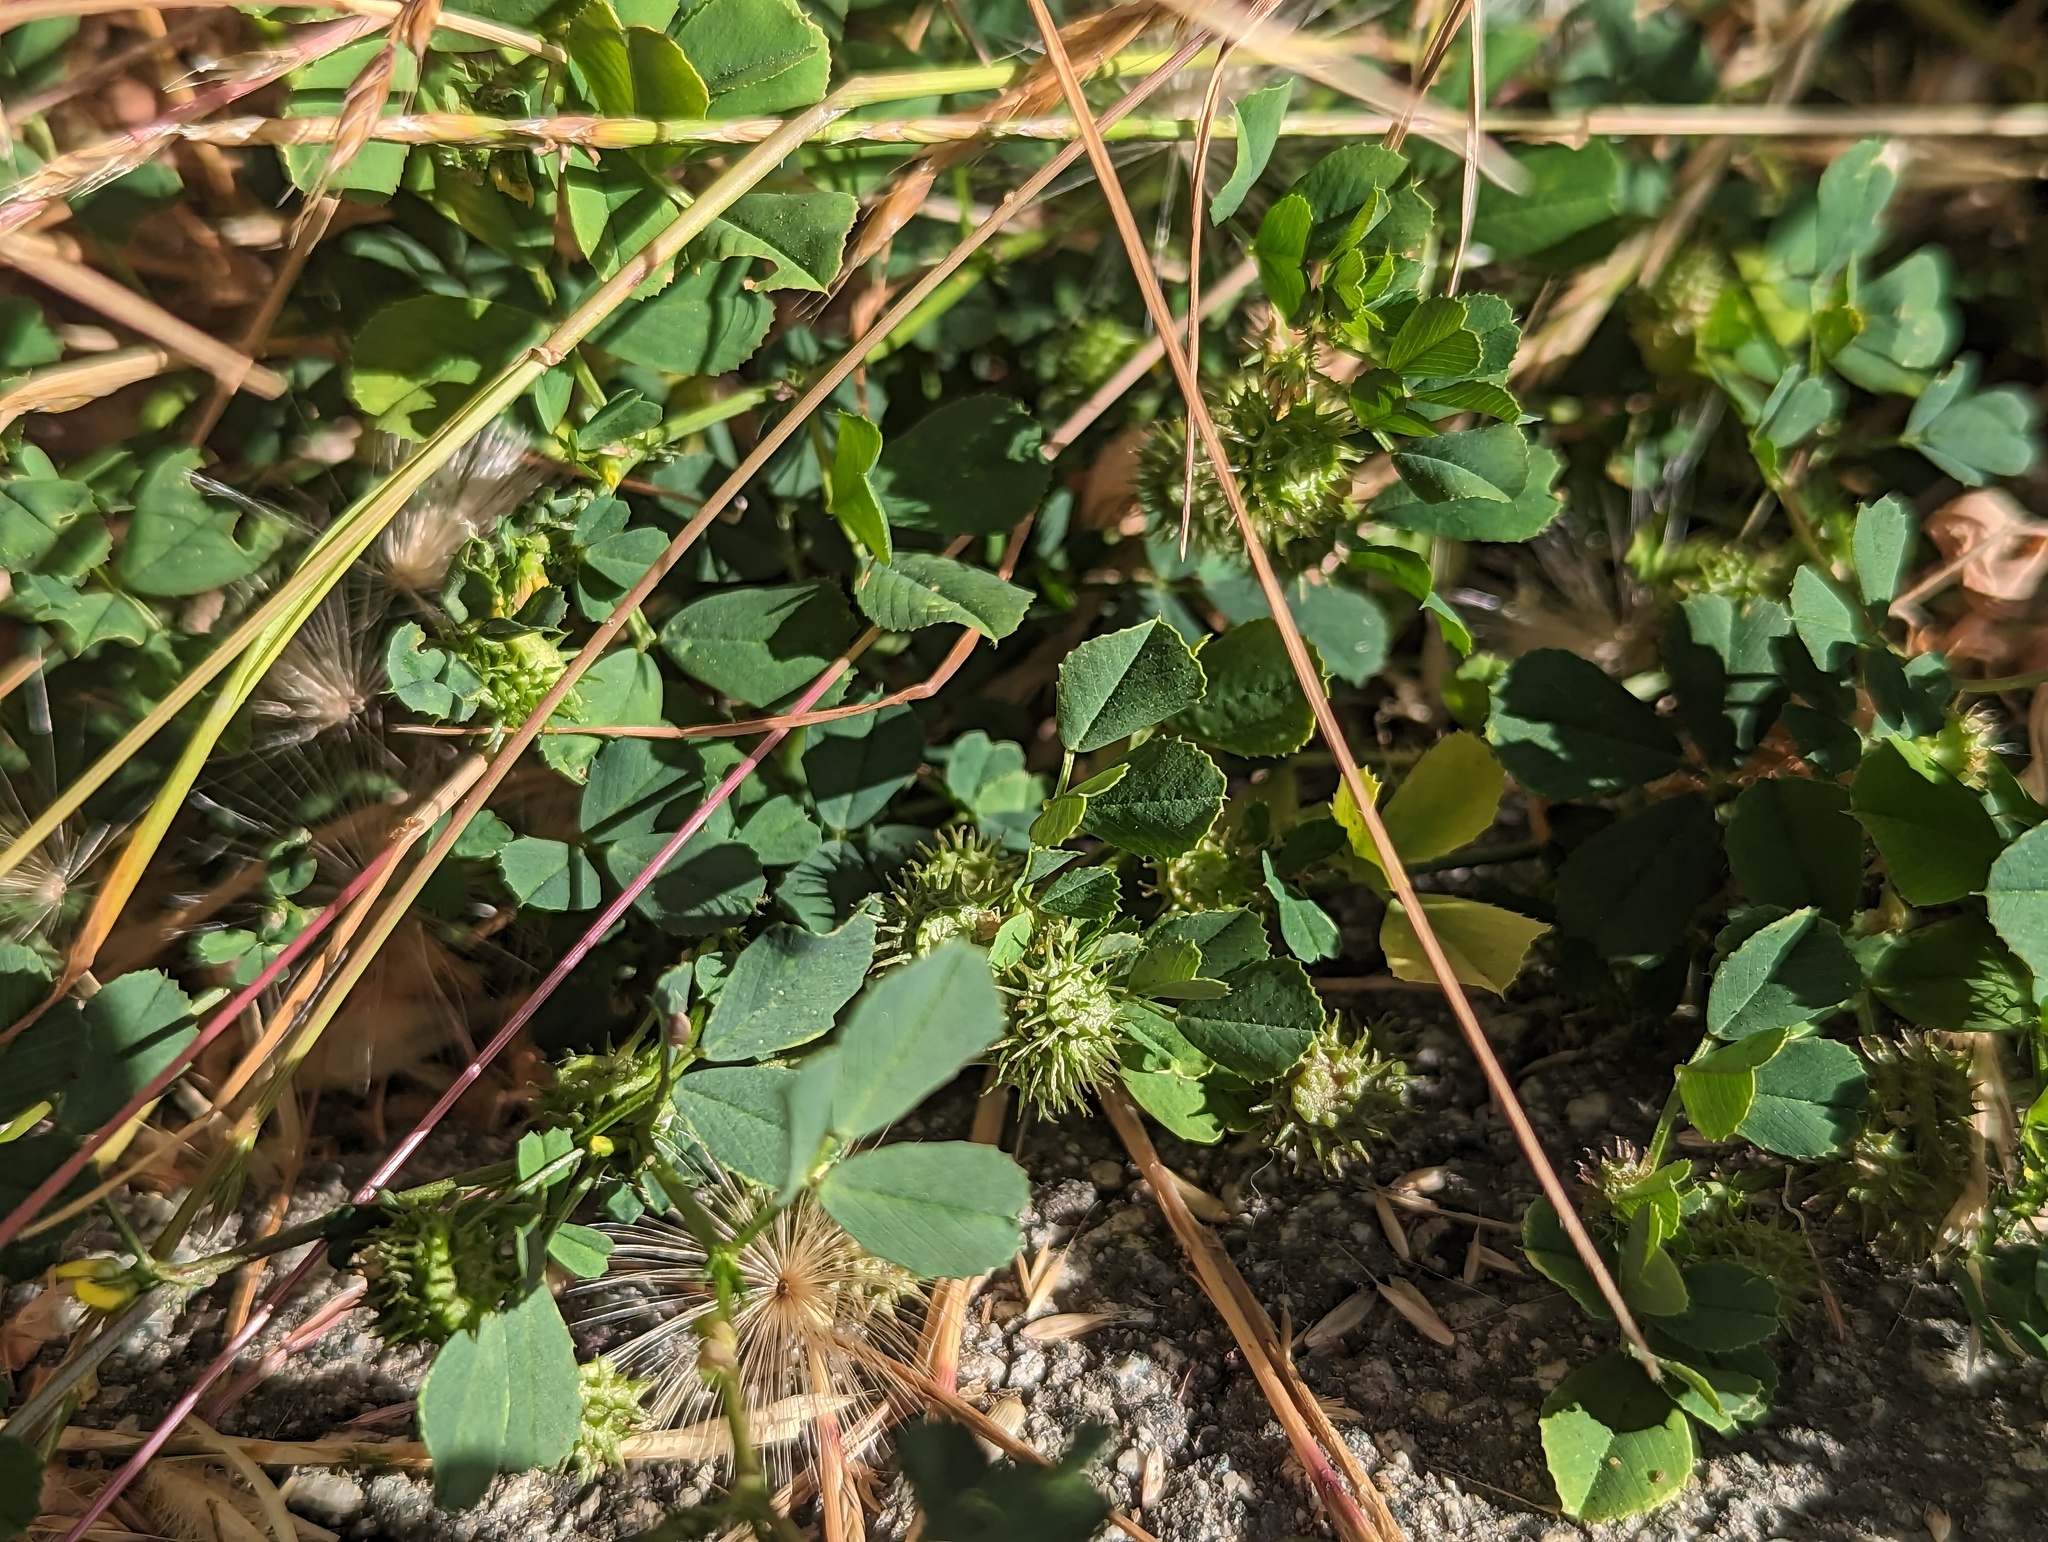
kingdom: Plantae
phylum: Tracheophyta
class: Magnoliopsida
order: Fabales
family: Fabaceae
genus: Medicago
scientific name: Medicago polymorpha
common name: Burclover
